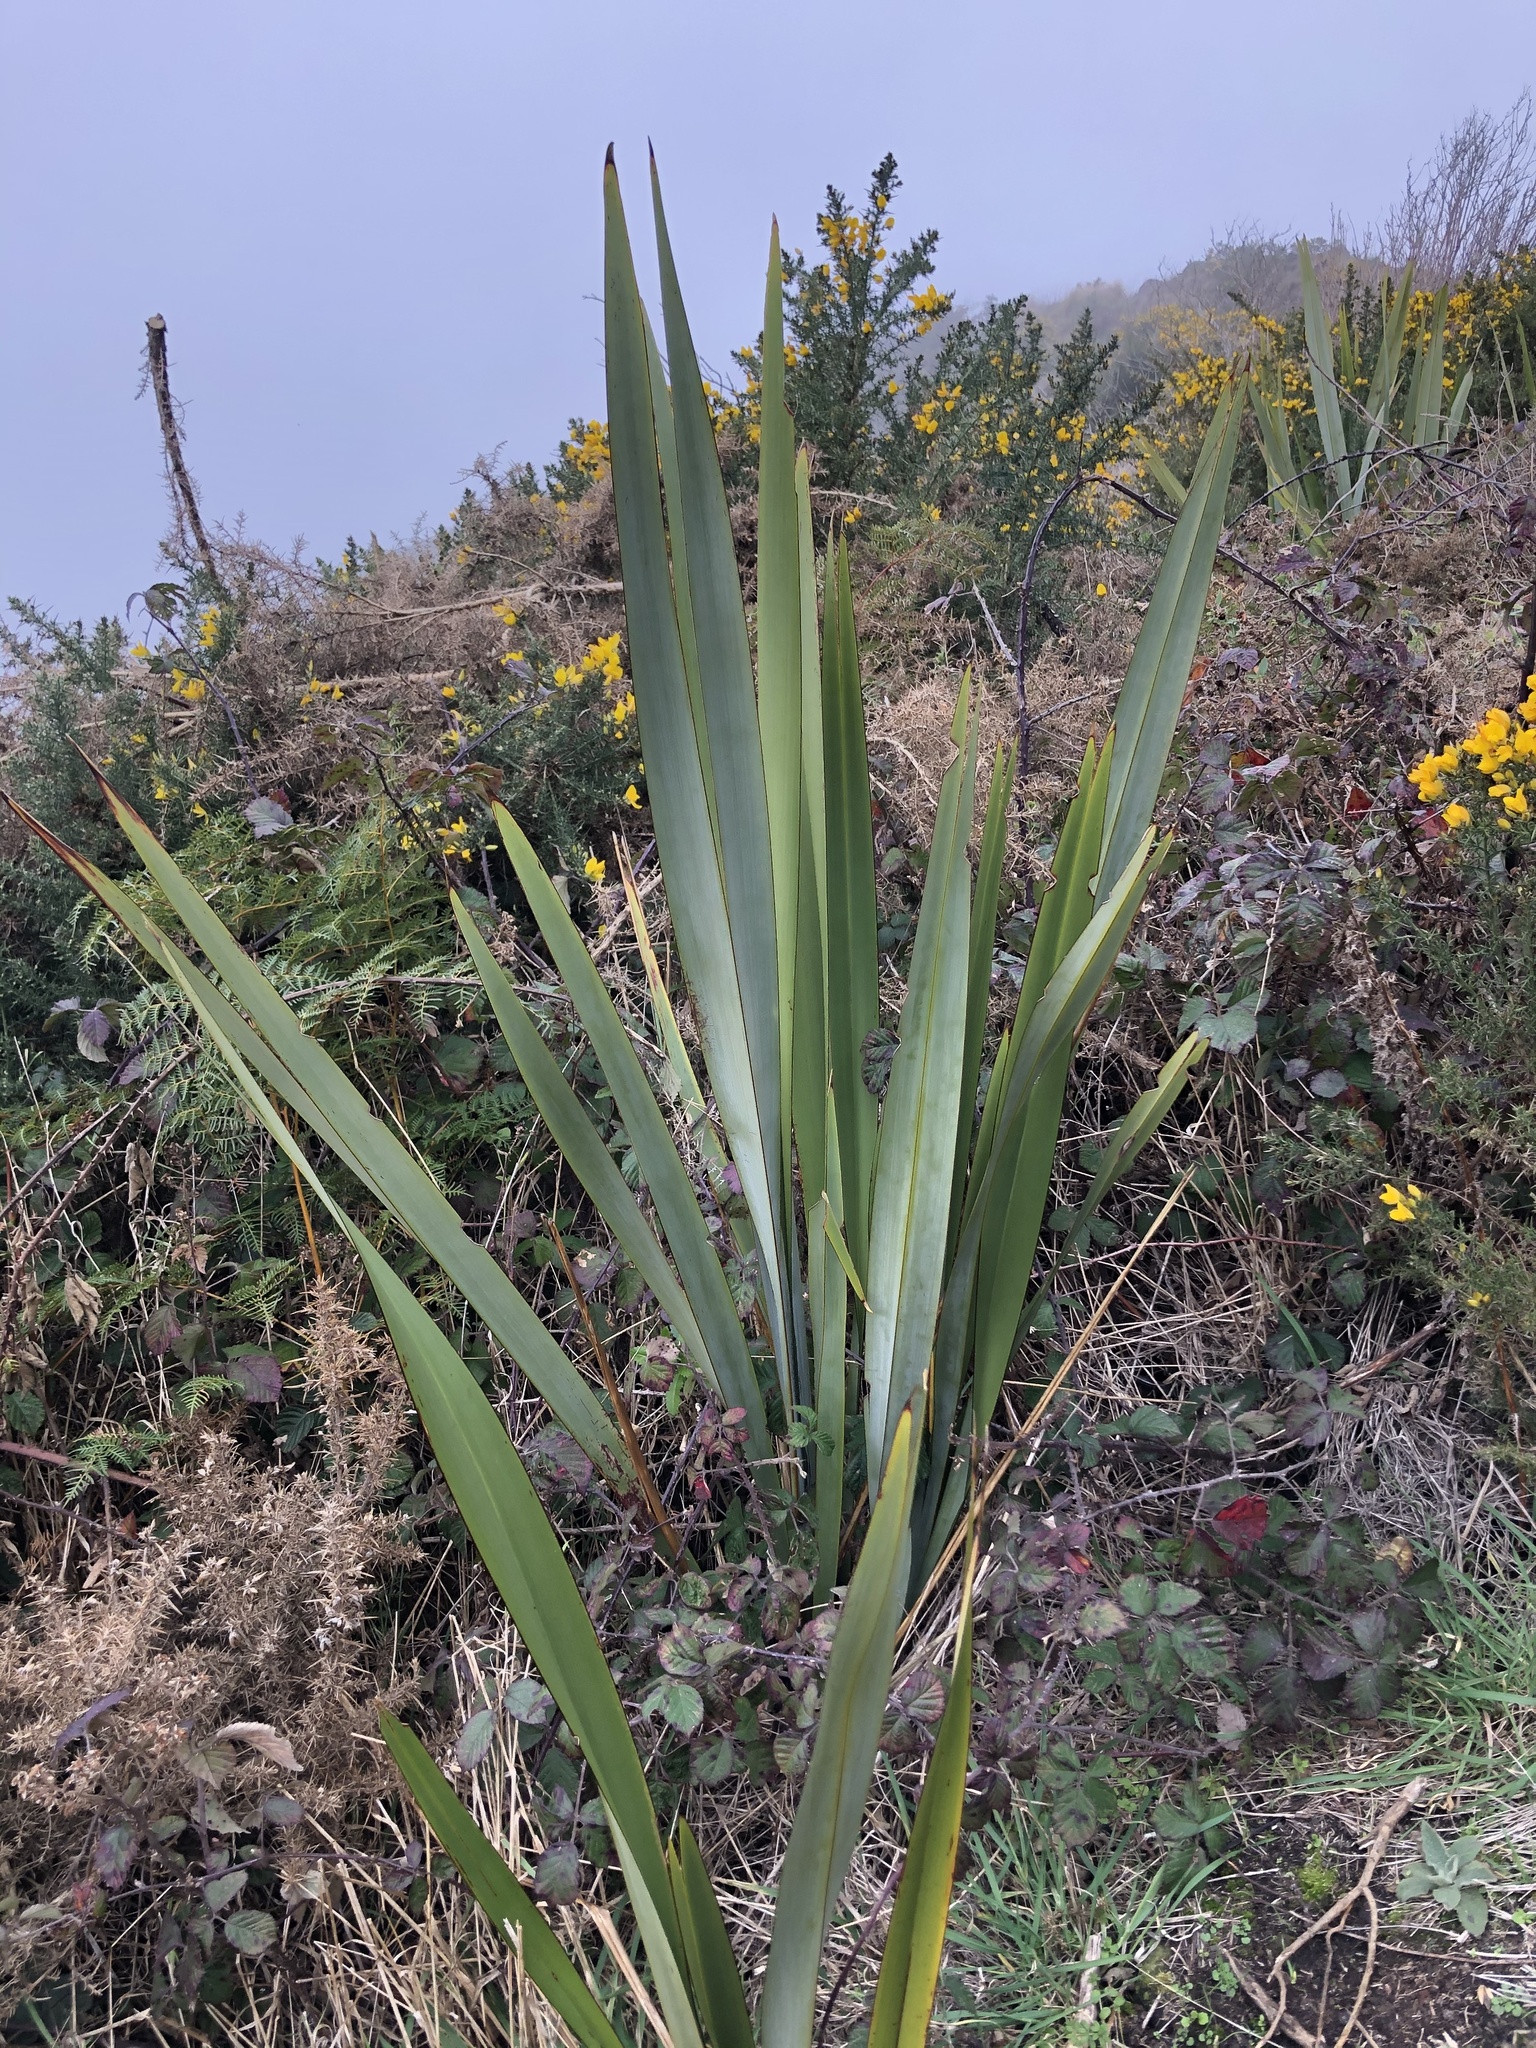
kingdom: Plantae
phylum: Tracheophyta
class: Liliopsida
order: Asparagales
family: Asphodelaceae
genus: Phormium
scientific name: Phormium tenax
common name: New zealand flax
